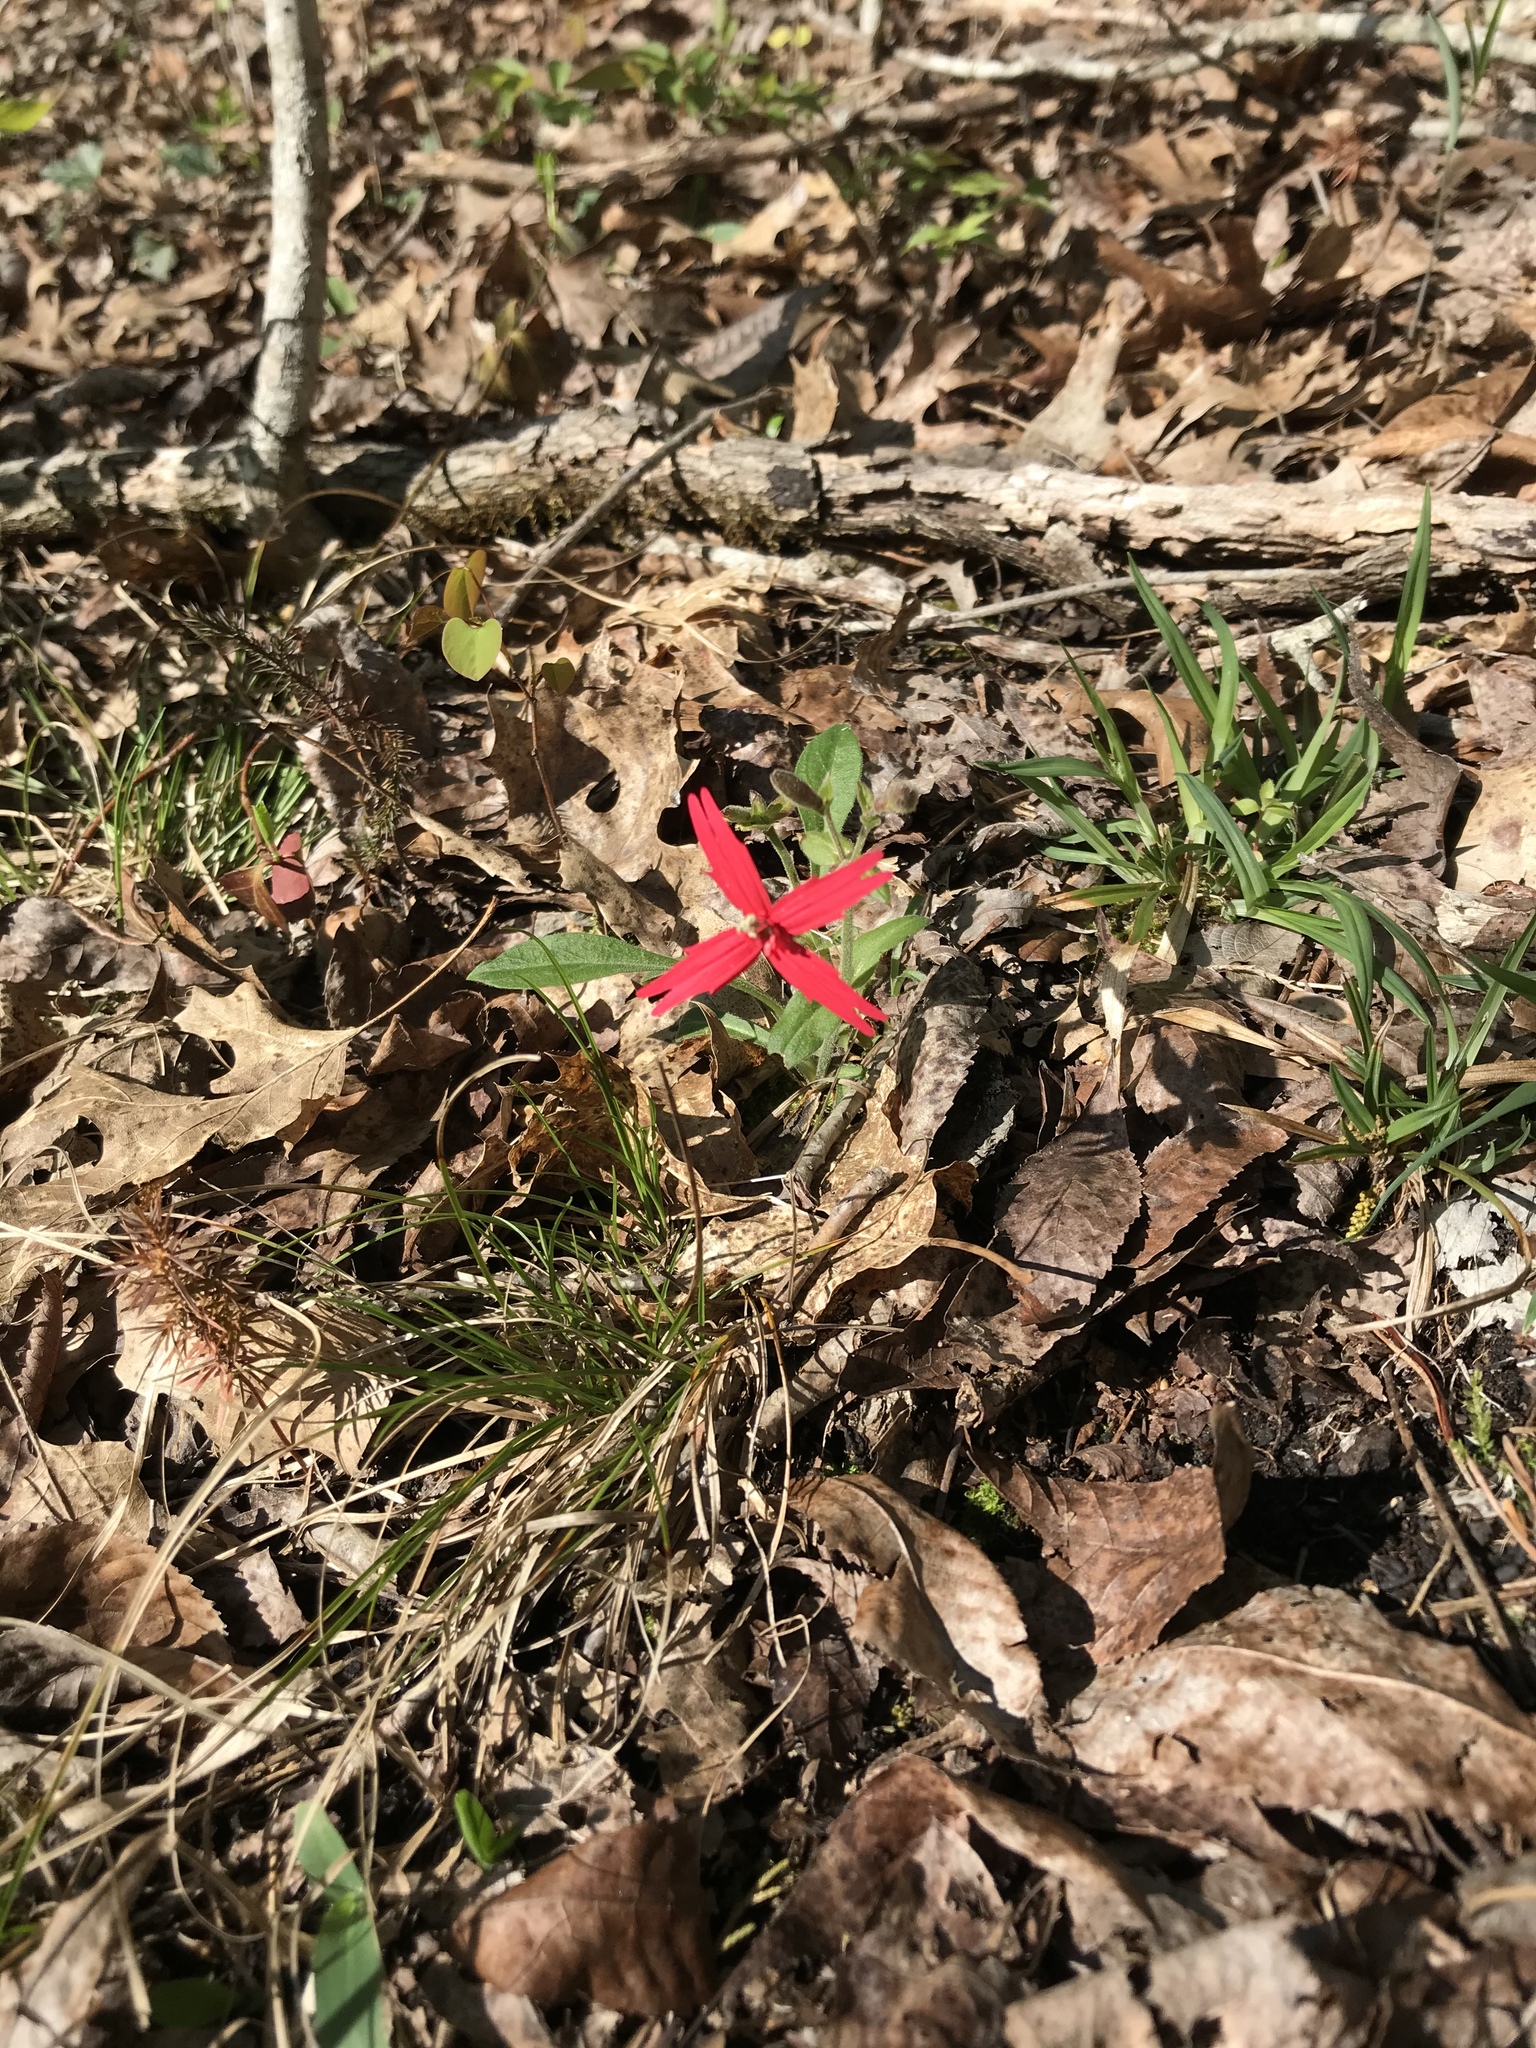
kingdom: Plantae
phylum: Tracheophyta
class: Magnoliopsida
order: Caryophyllales
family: Caryophyllaceae
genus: Silene
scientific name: Silene virginica
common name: Fire-pink
